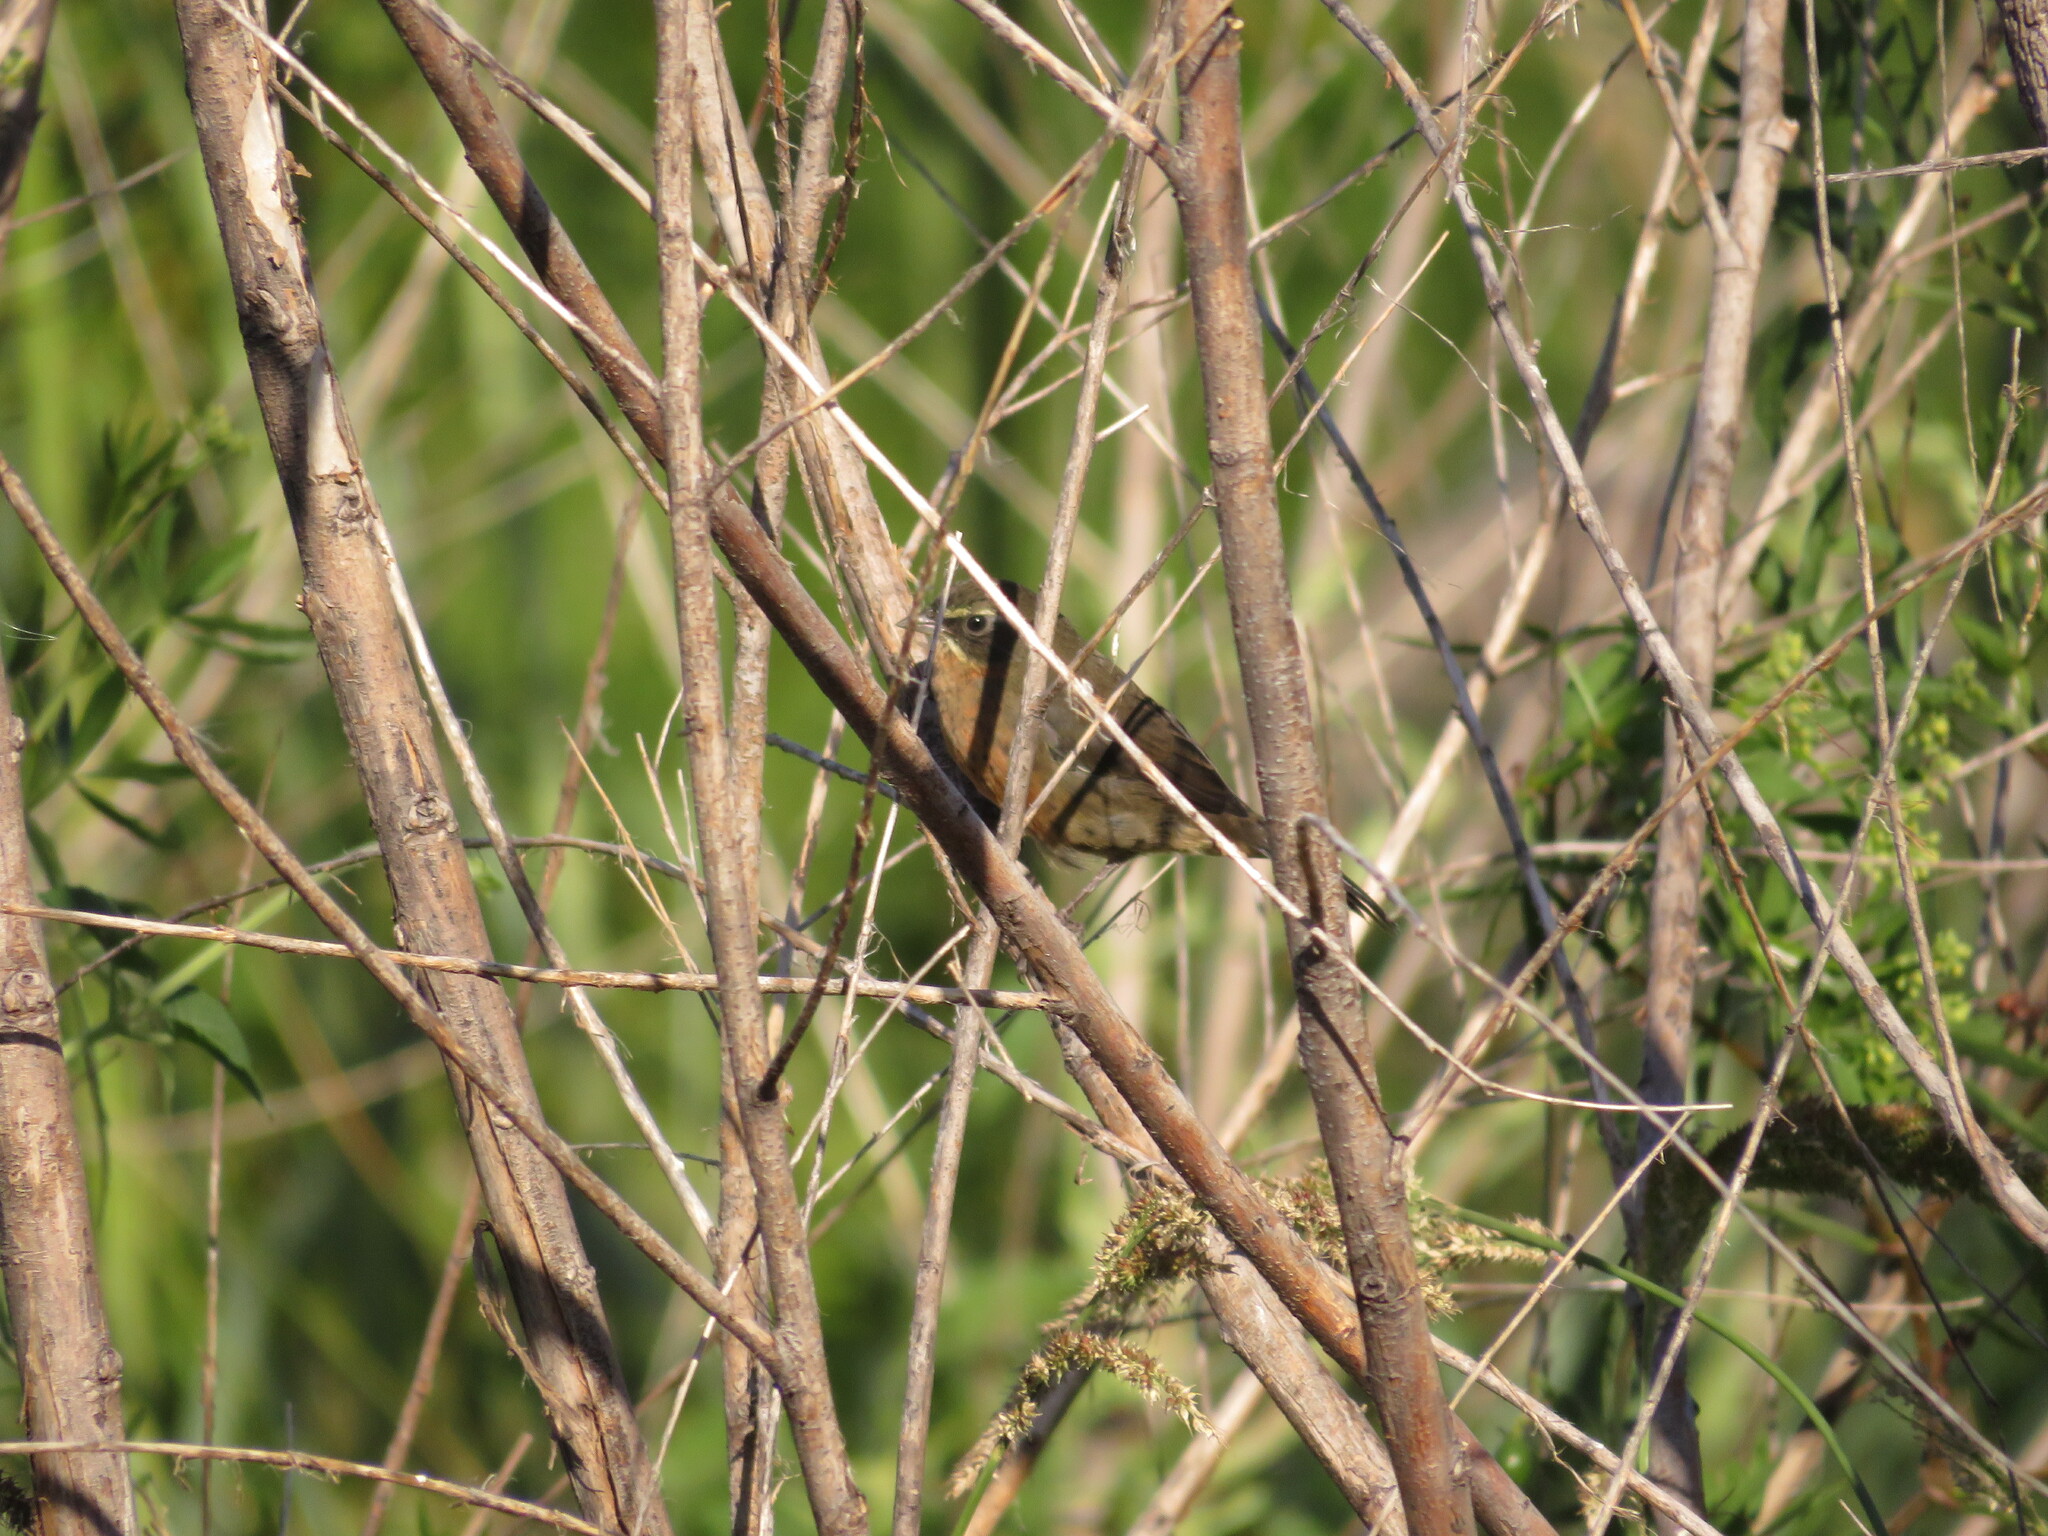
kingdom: Animalia
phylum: Chordata
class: Aves
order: Passeriformes
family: Thraupidae
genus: Poospiza
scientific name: Poospiza nigrorufa
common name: Black-and-rufous warbling finch
